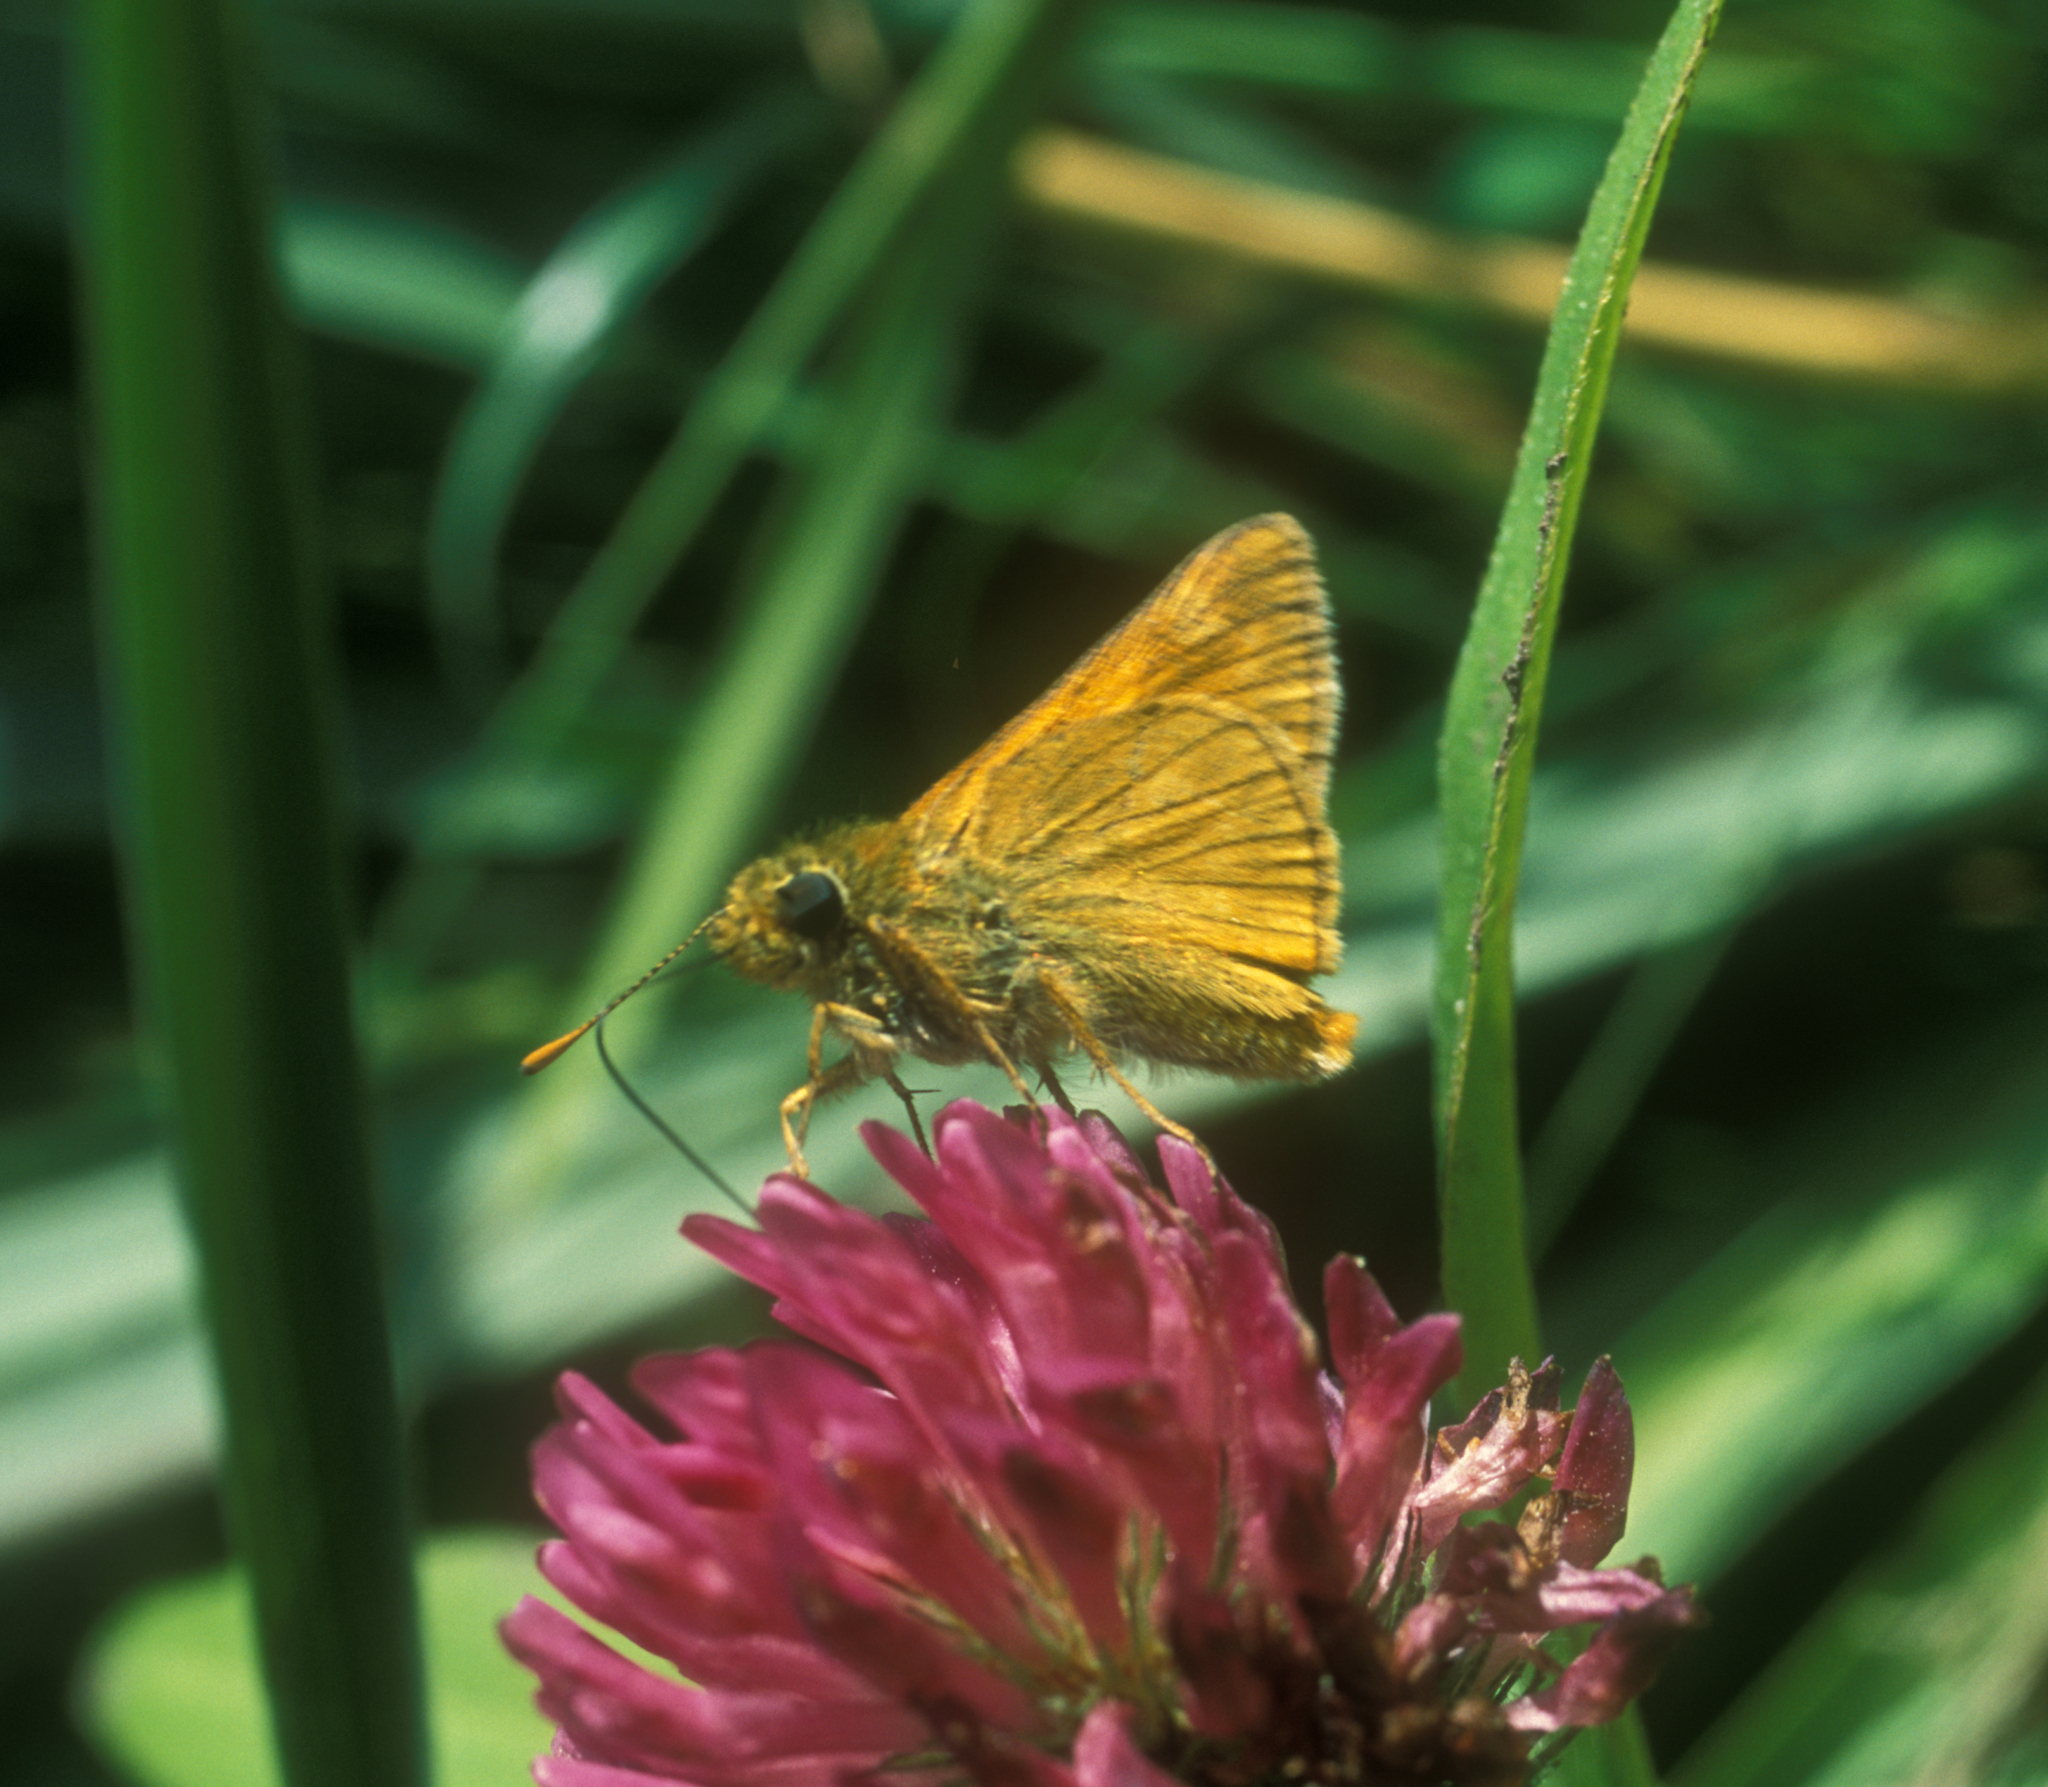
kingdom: Plantae
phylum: Tracheophyta
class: Magnoliopsida
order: Fabales
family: Fabaceae
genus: Trifolium
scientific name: Trifolium pratense
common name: Red clover
